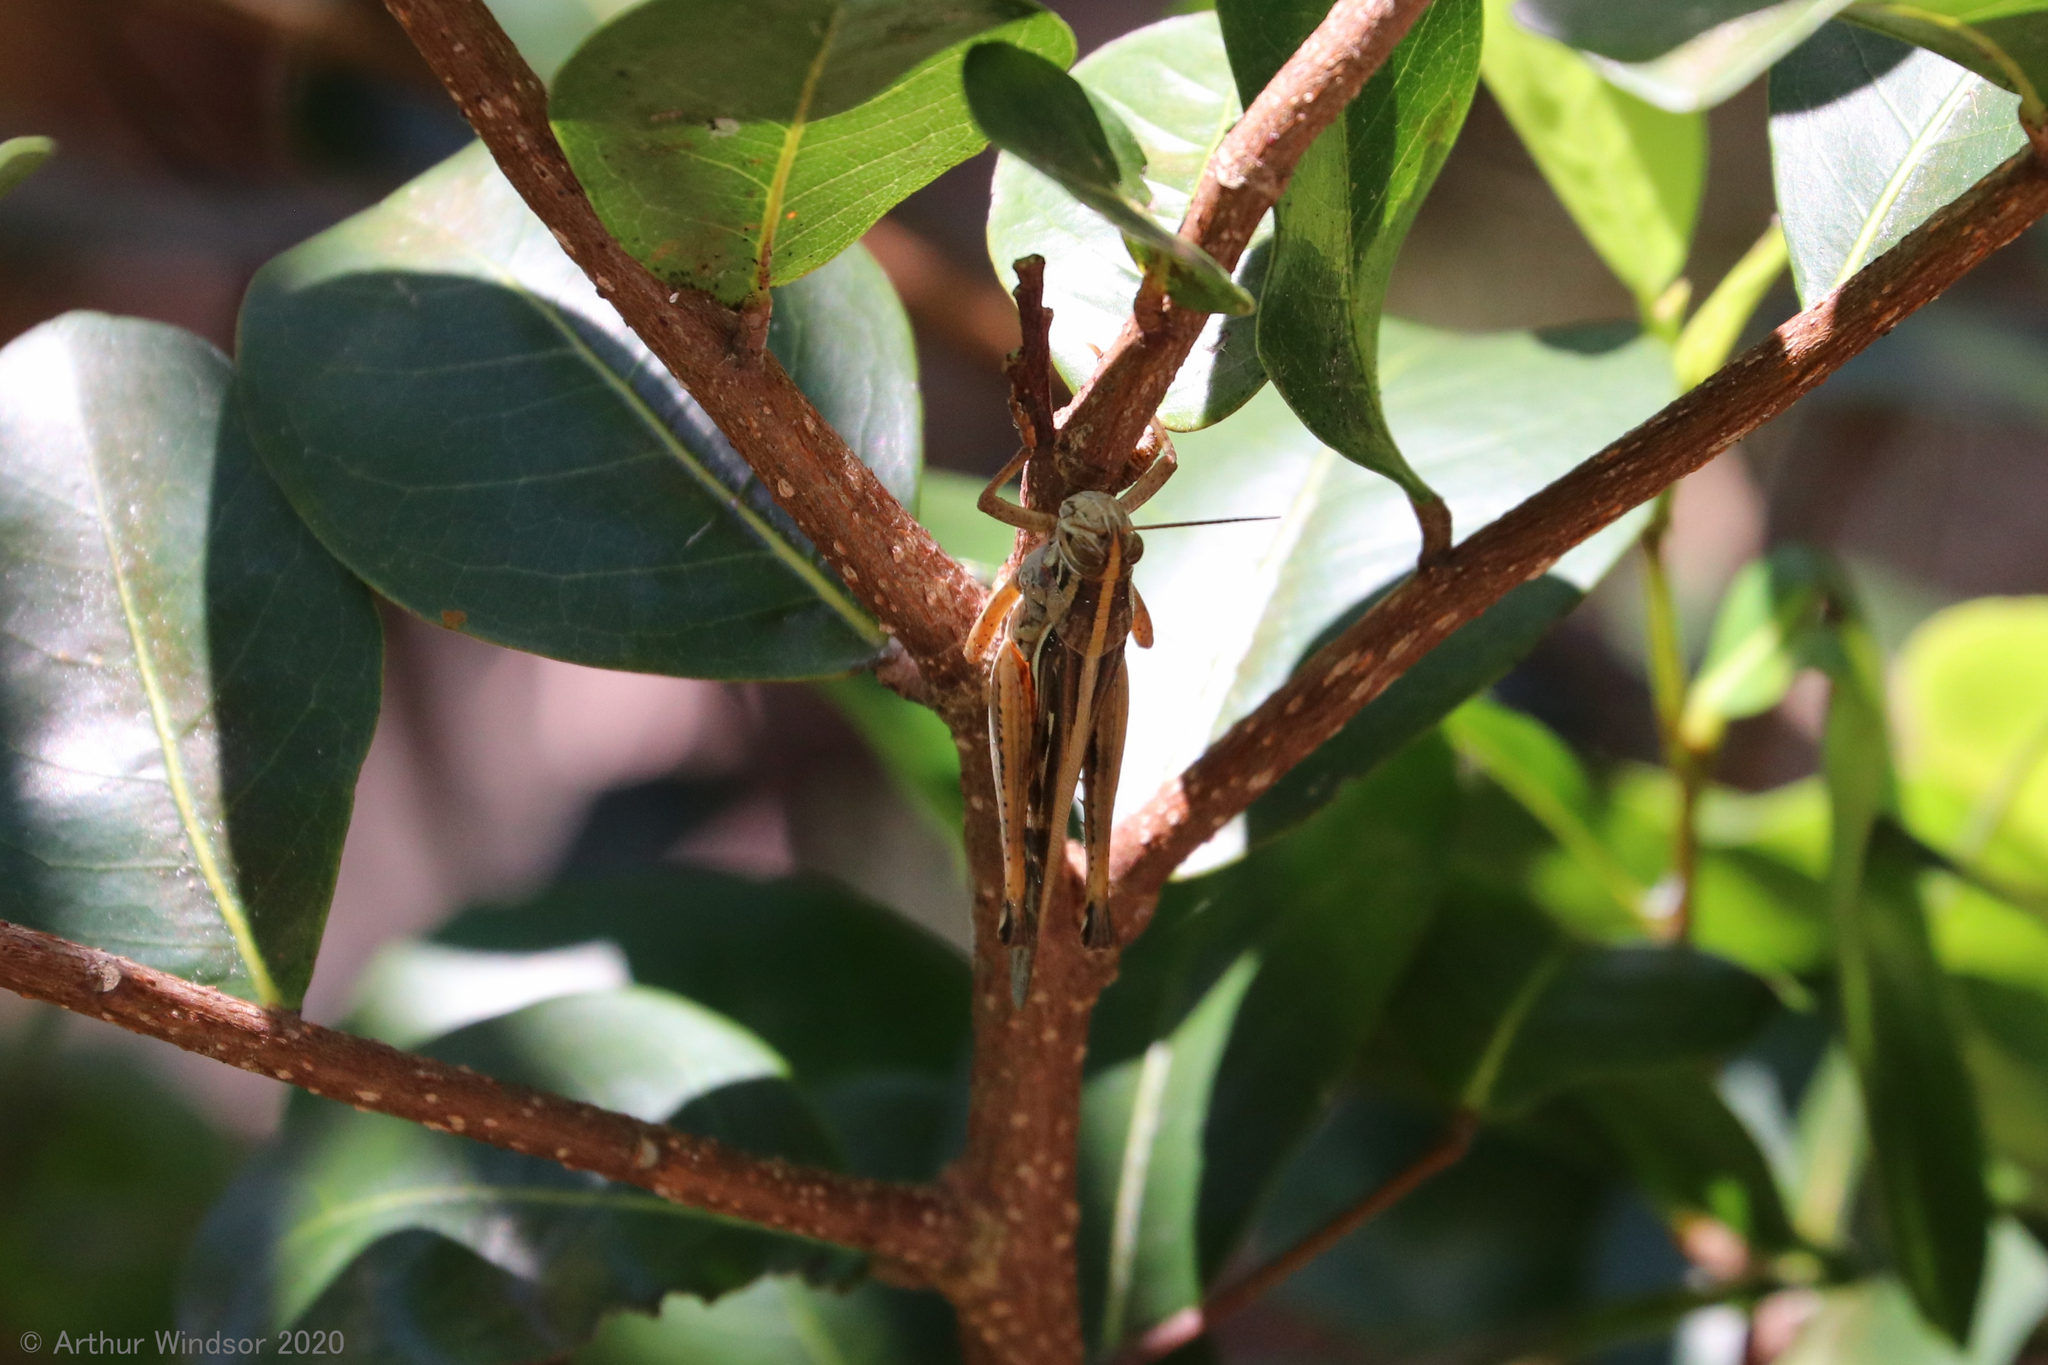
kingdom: Animalia
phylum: Arthropoda
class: Insecta
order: Orthoptera
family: Acrididae
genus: Schistocerca
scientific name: Schistocerca serialis
